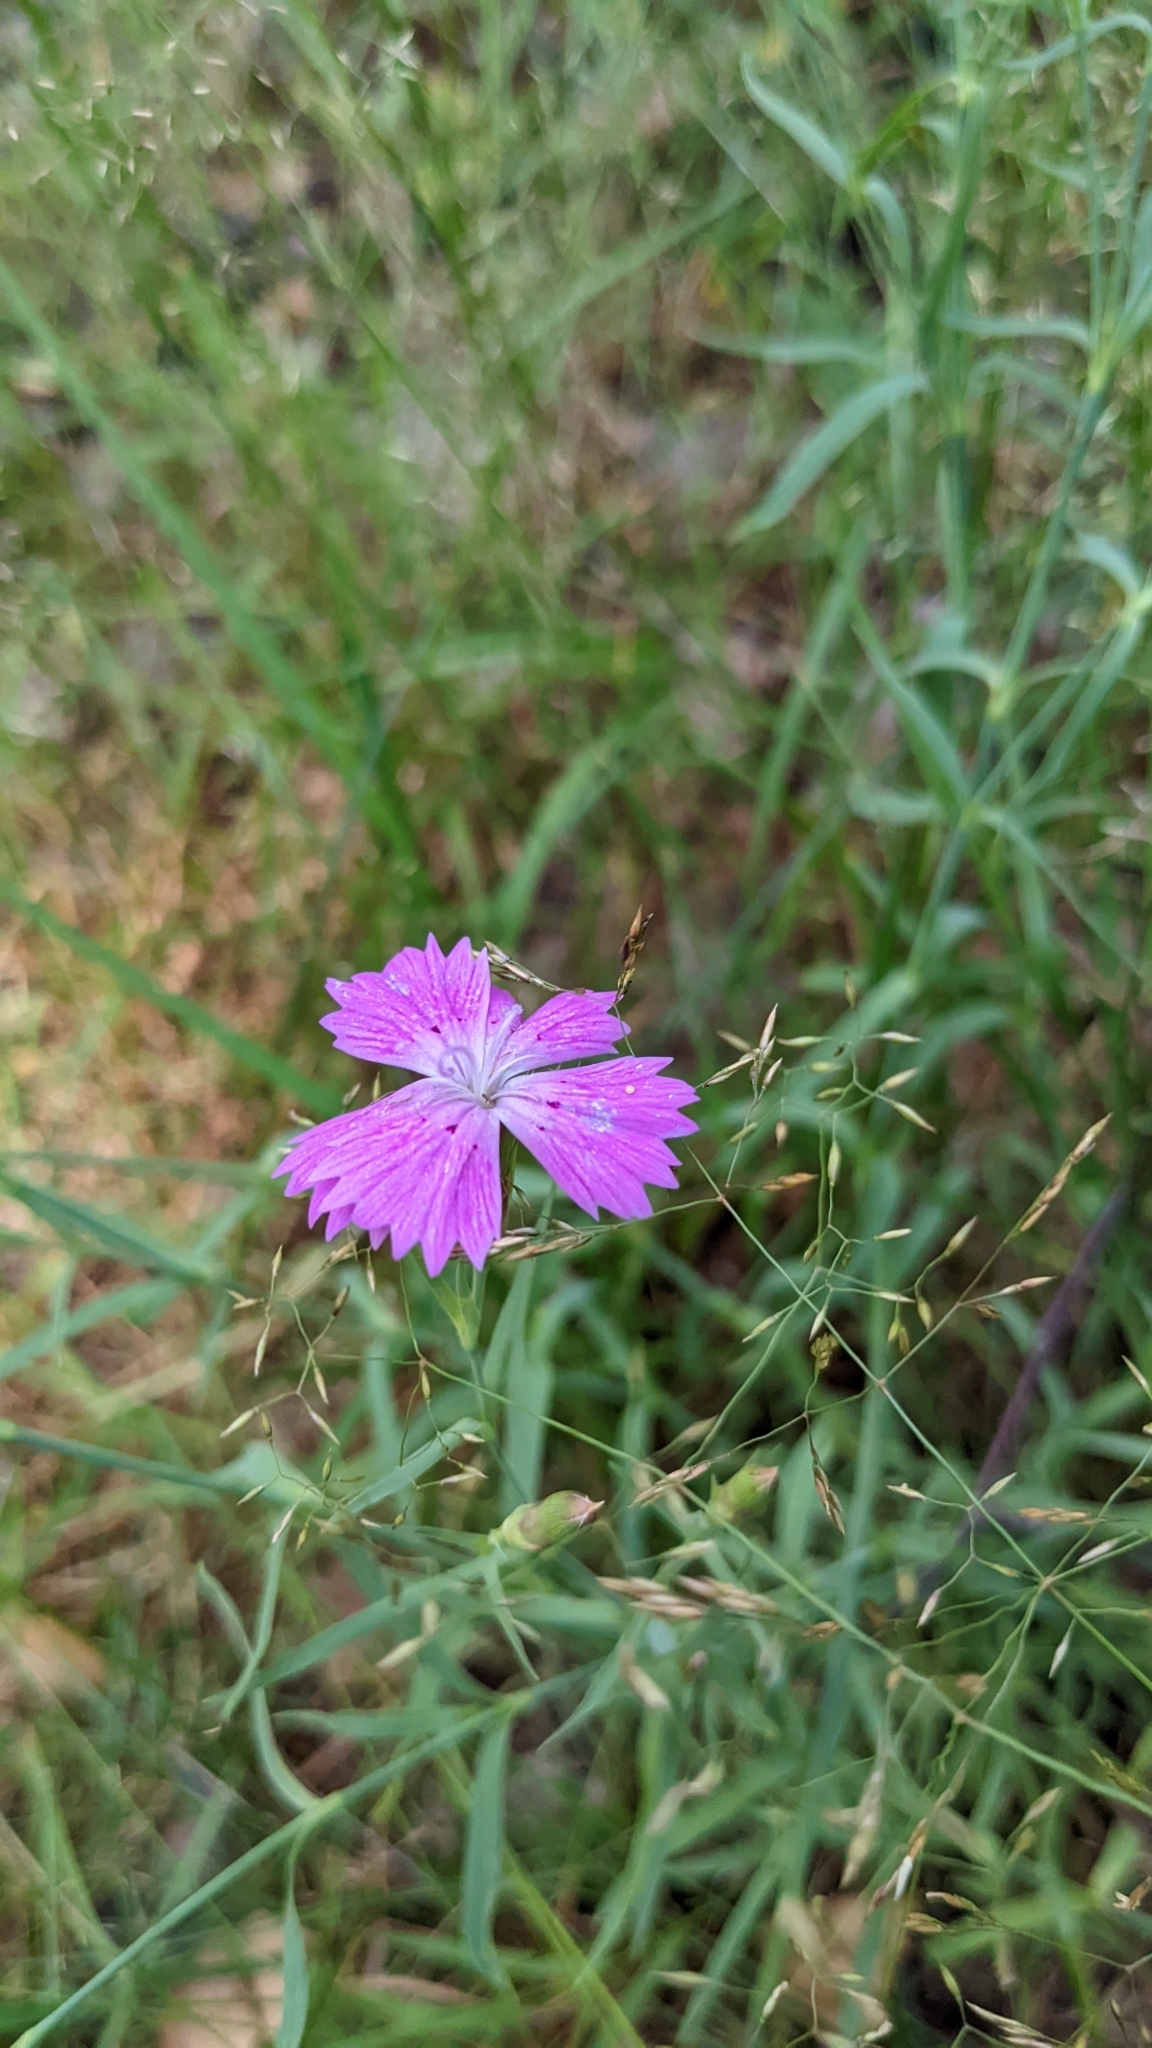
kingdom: Plantae
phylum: Tracheophyta
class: Magnoliopsida
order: Caryophyllales
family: Caryophyllaceae
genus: Dianthus
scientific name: Dianthus chinensis
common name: Rainbow pink
